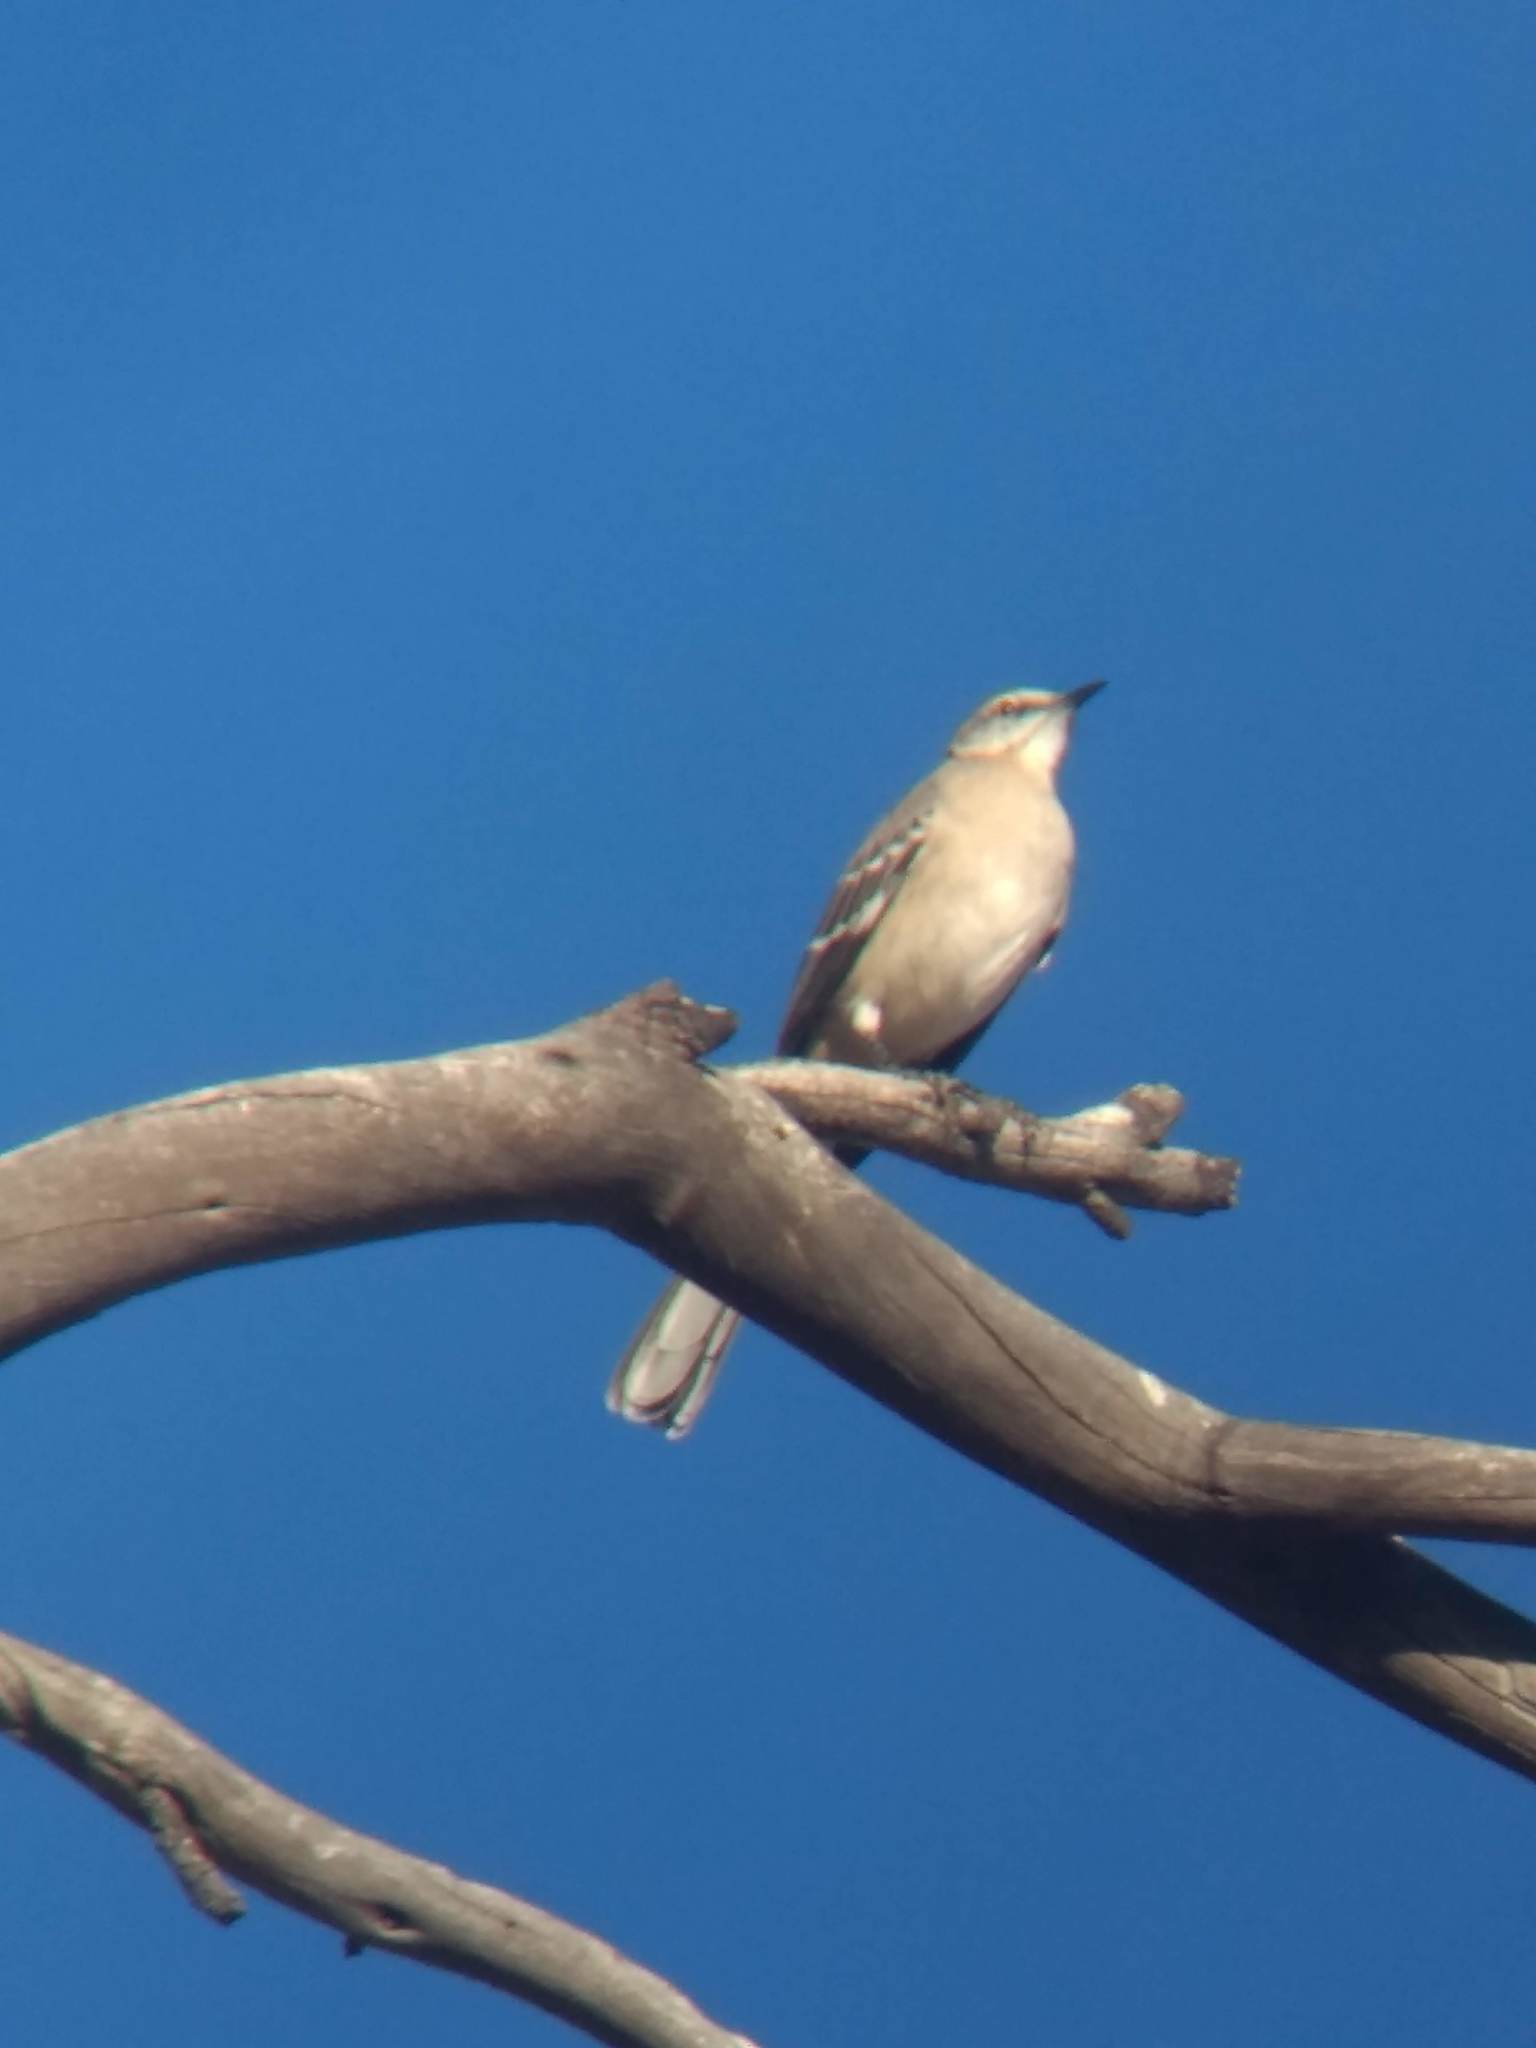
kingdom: Animalia
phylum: Chordata
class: Aves
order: Passeriformes
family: Mimidae
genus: Mimus
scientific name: Mimus polyglottos
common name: Northern mockingbird
